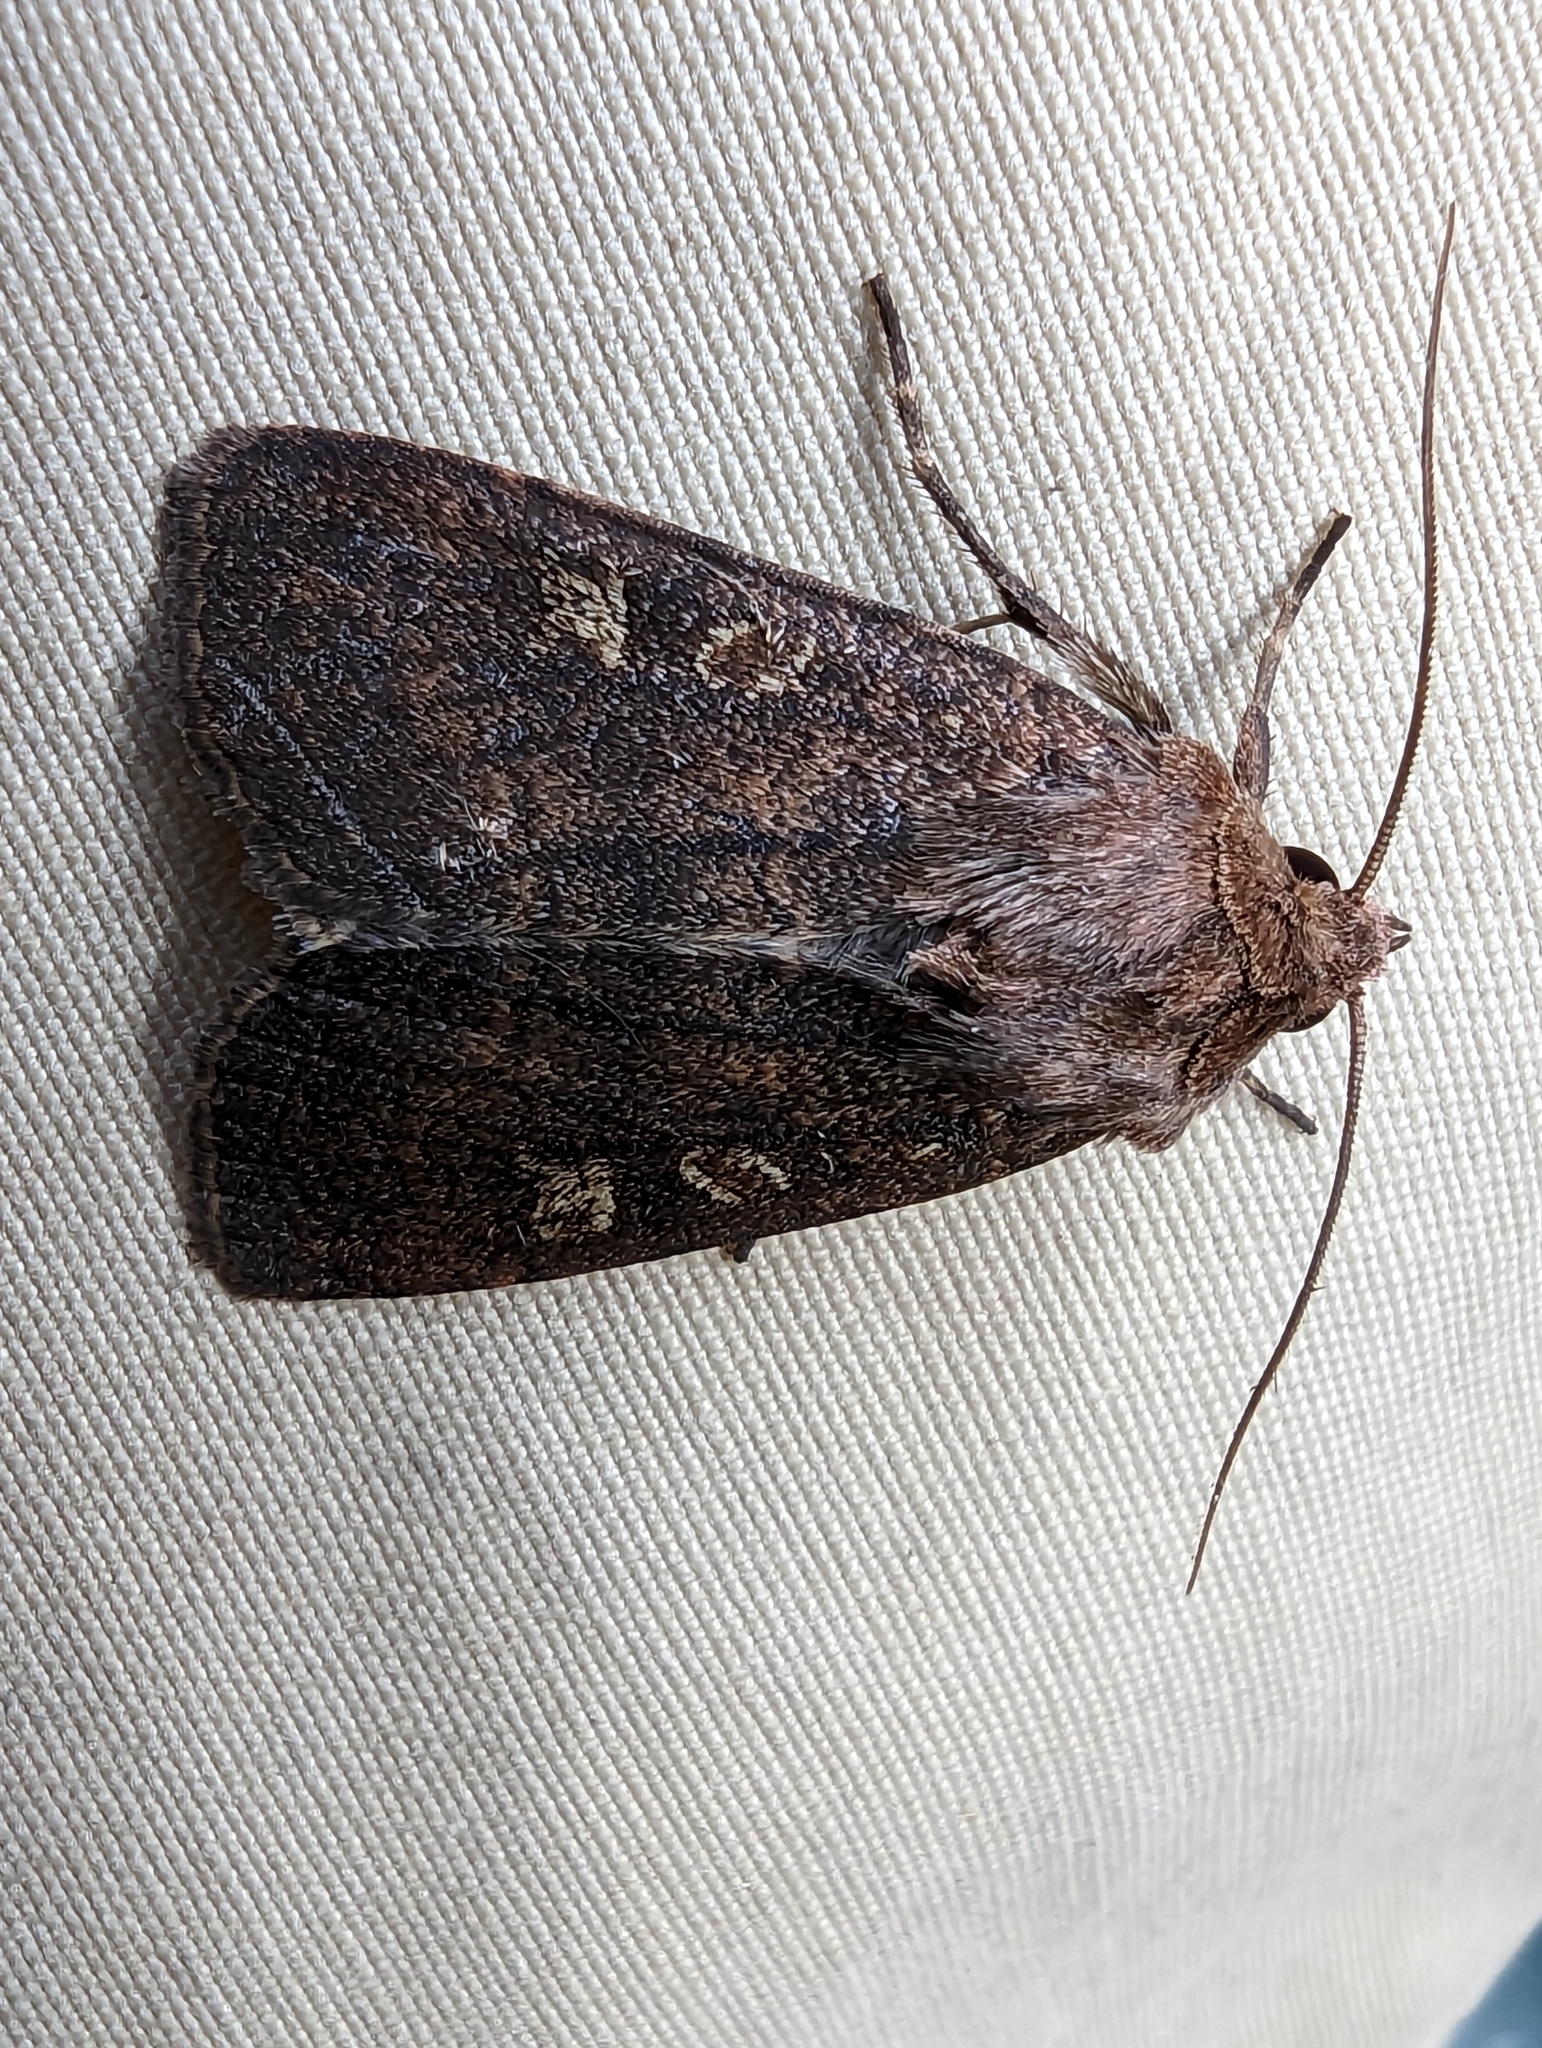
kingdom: Animalia
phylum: Arthropoda
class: Insecta
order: Lepidoptera
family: Noctuidae
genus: Xestia
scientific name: Xestia xanthographa
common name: Square-spot rustic
